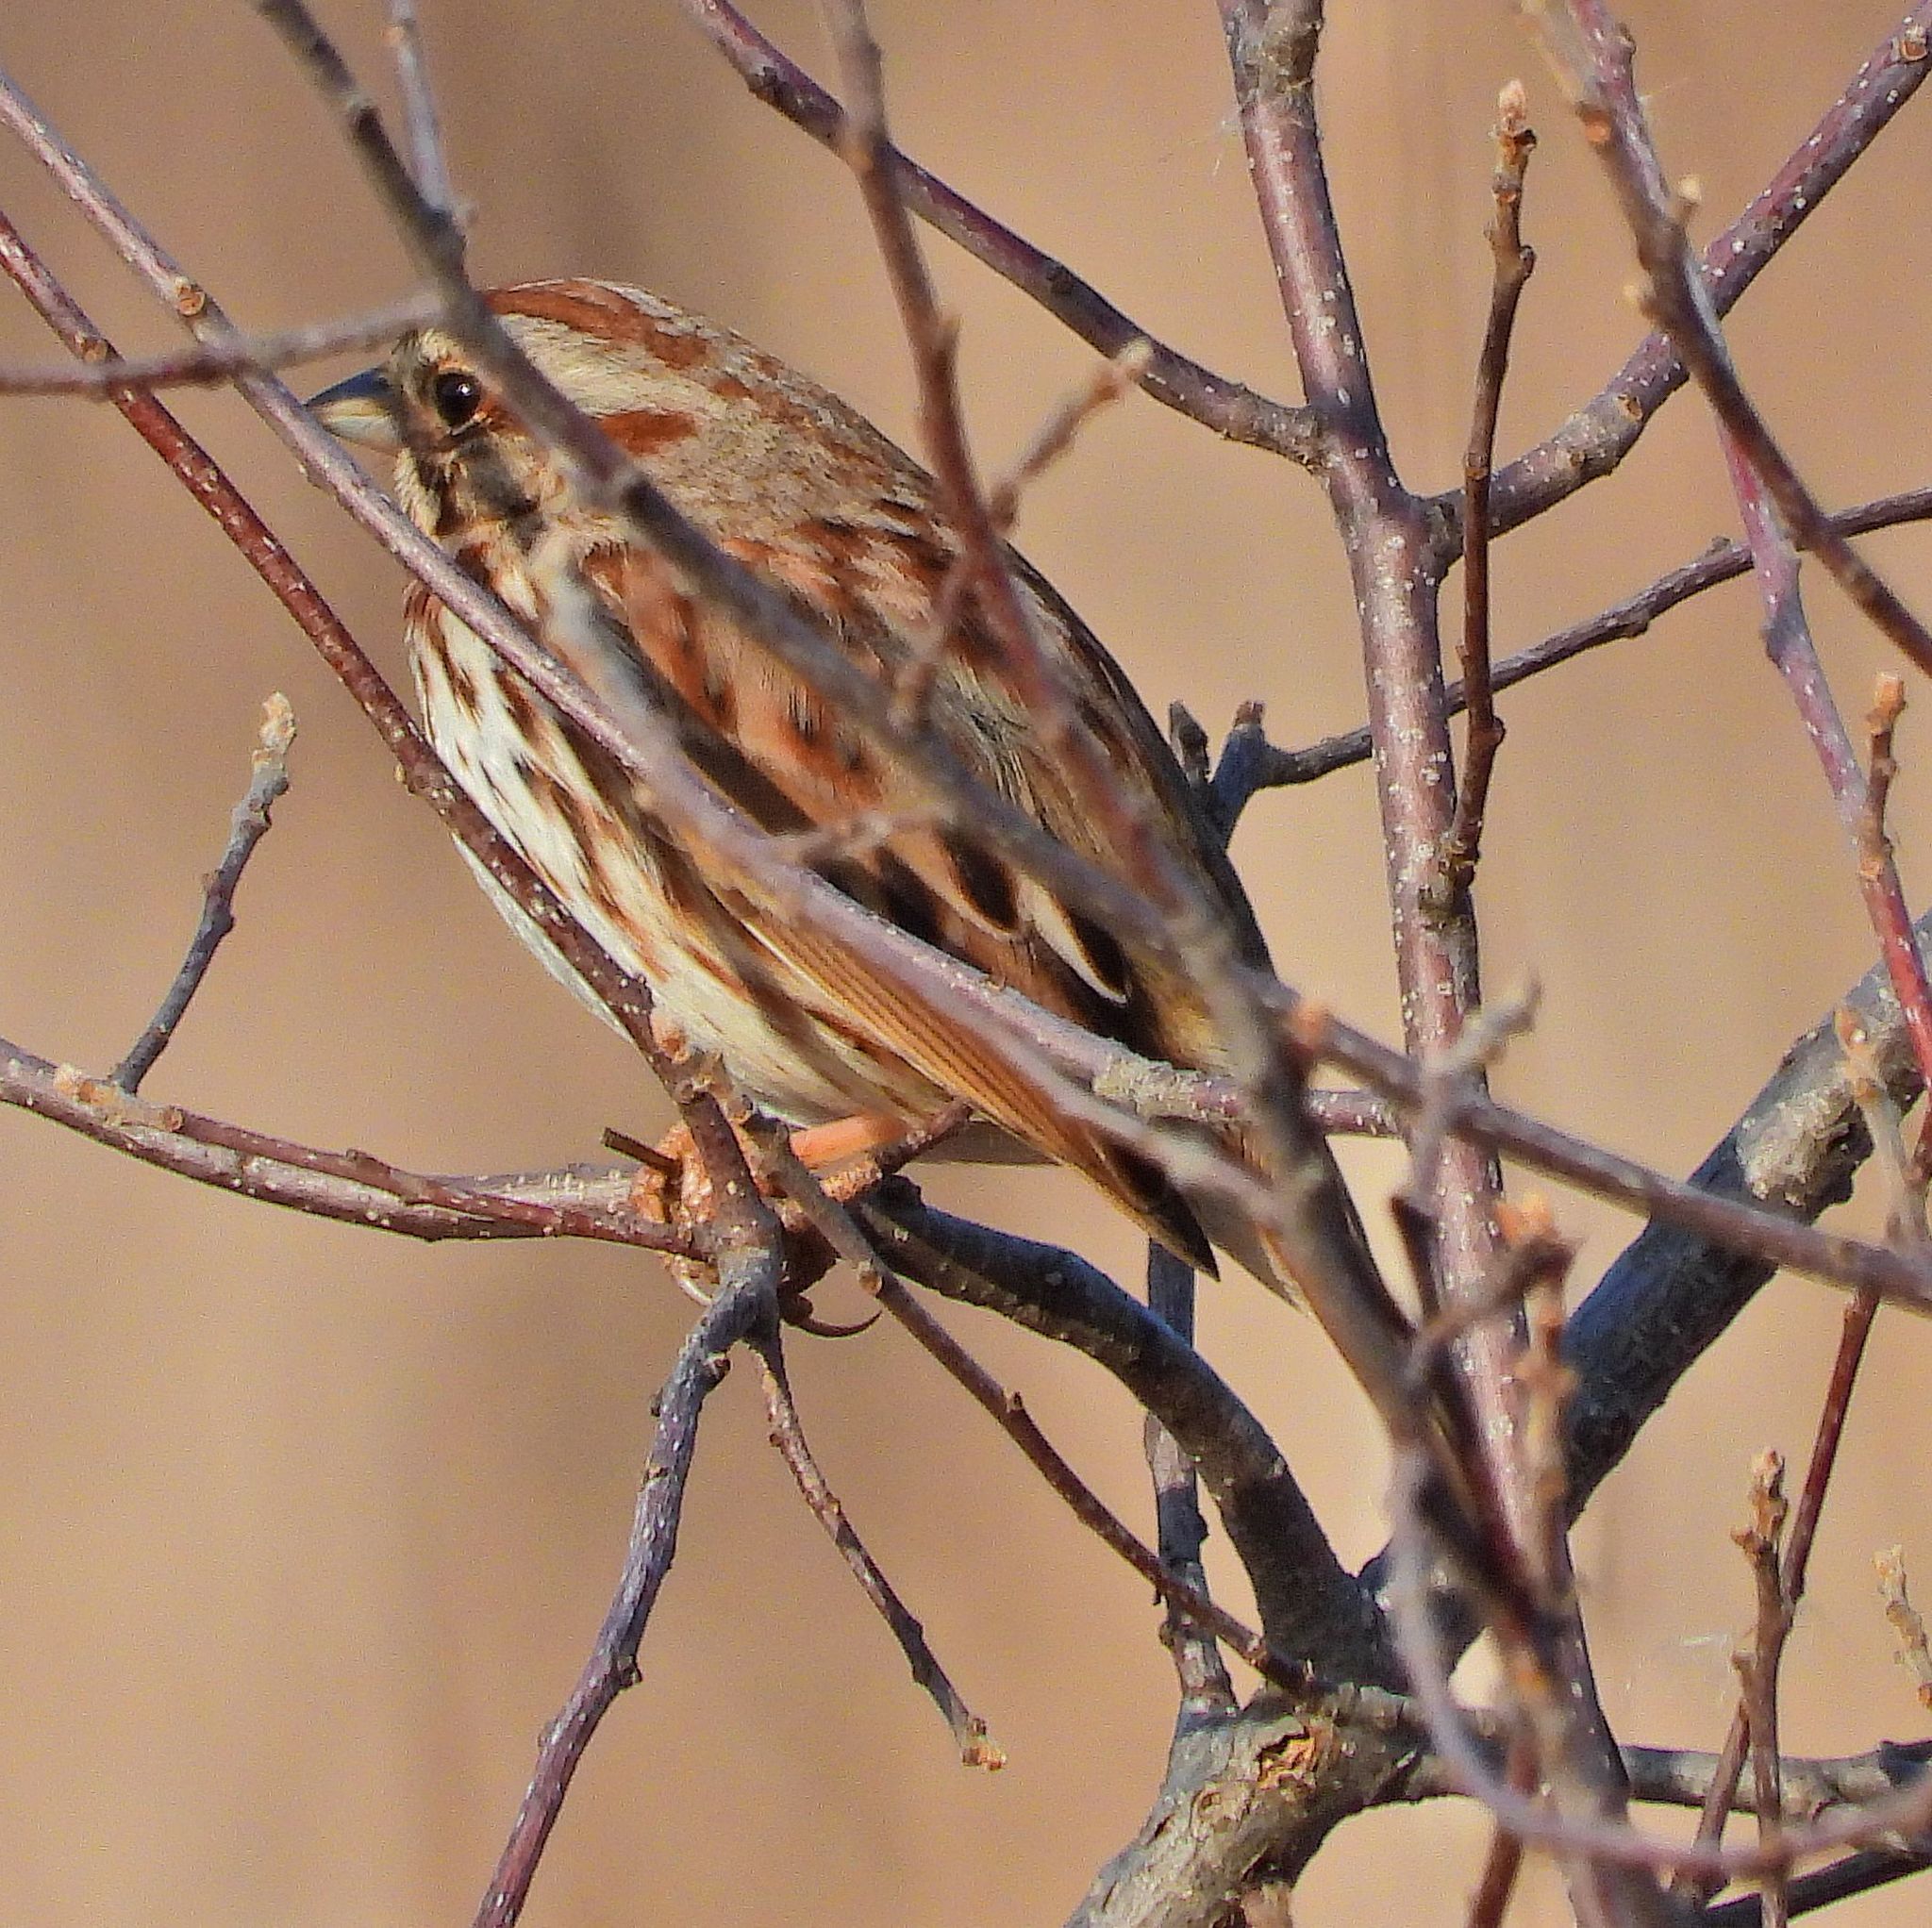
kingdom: Animalia
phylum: Chordata
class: Aves
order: Passeriformes
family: Passerellidae
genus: Melospiza
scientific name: Melospiza melodia
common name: Song sparrow
